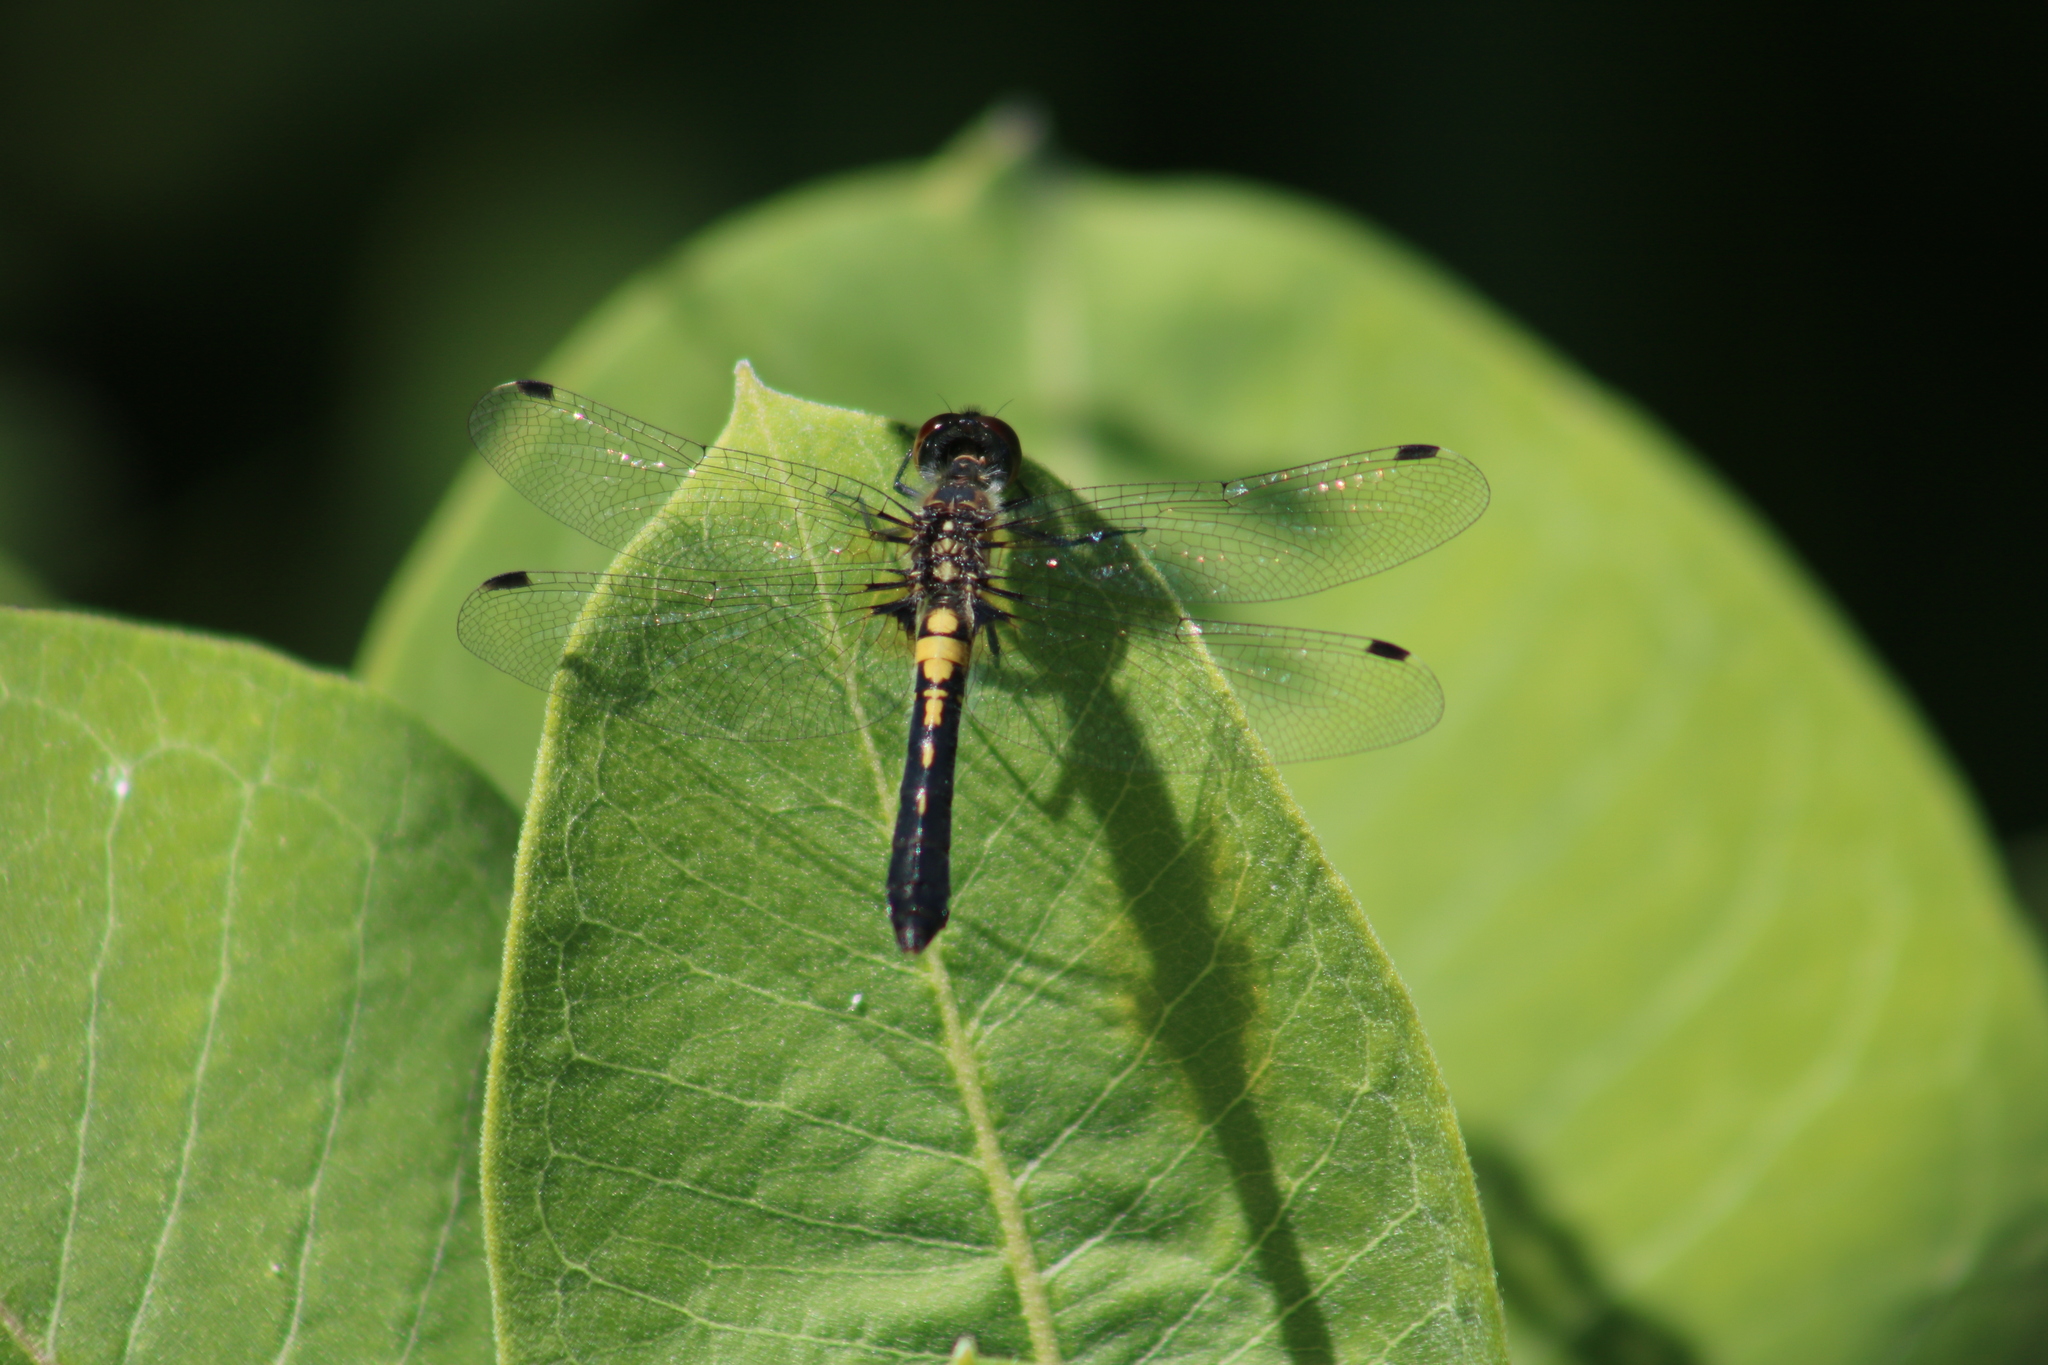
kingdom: Animalia
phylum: Arthropoda
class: Insecta
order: Odonata
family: Libellulidae
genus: Leucorrhinia
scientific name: Leucorrhinia frigida
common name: Frosted whiteface
